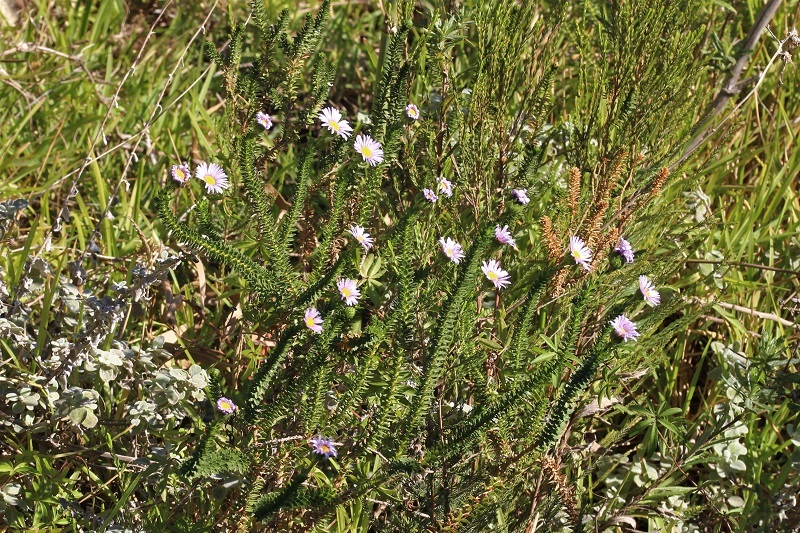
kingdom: Plantae
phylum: Tracheophyta
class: Magnoliopsida
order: Asterales
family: Asteraceae
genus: Felicia
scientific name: Felicia echinata
